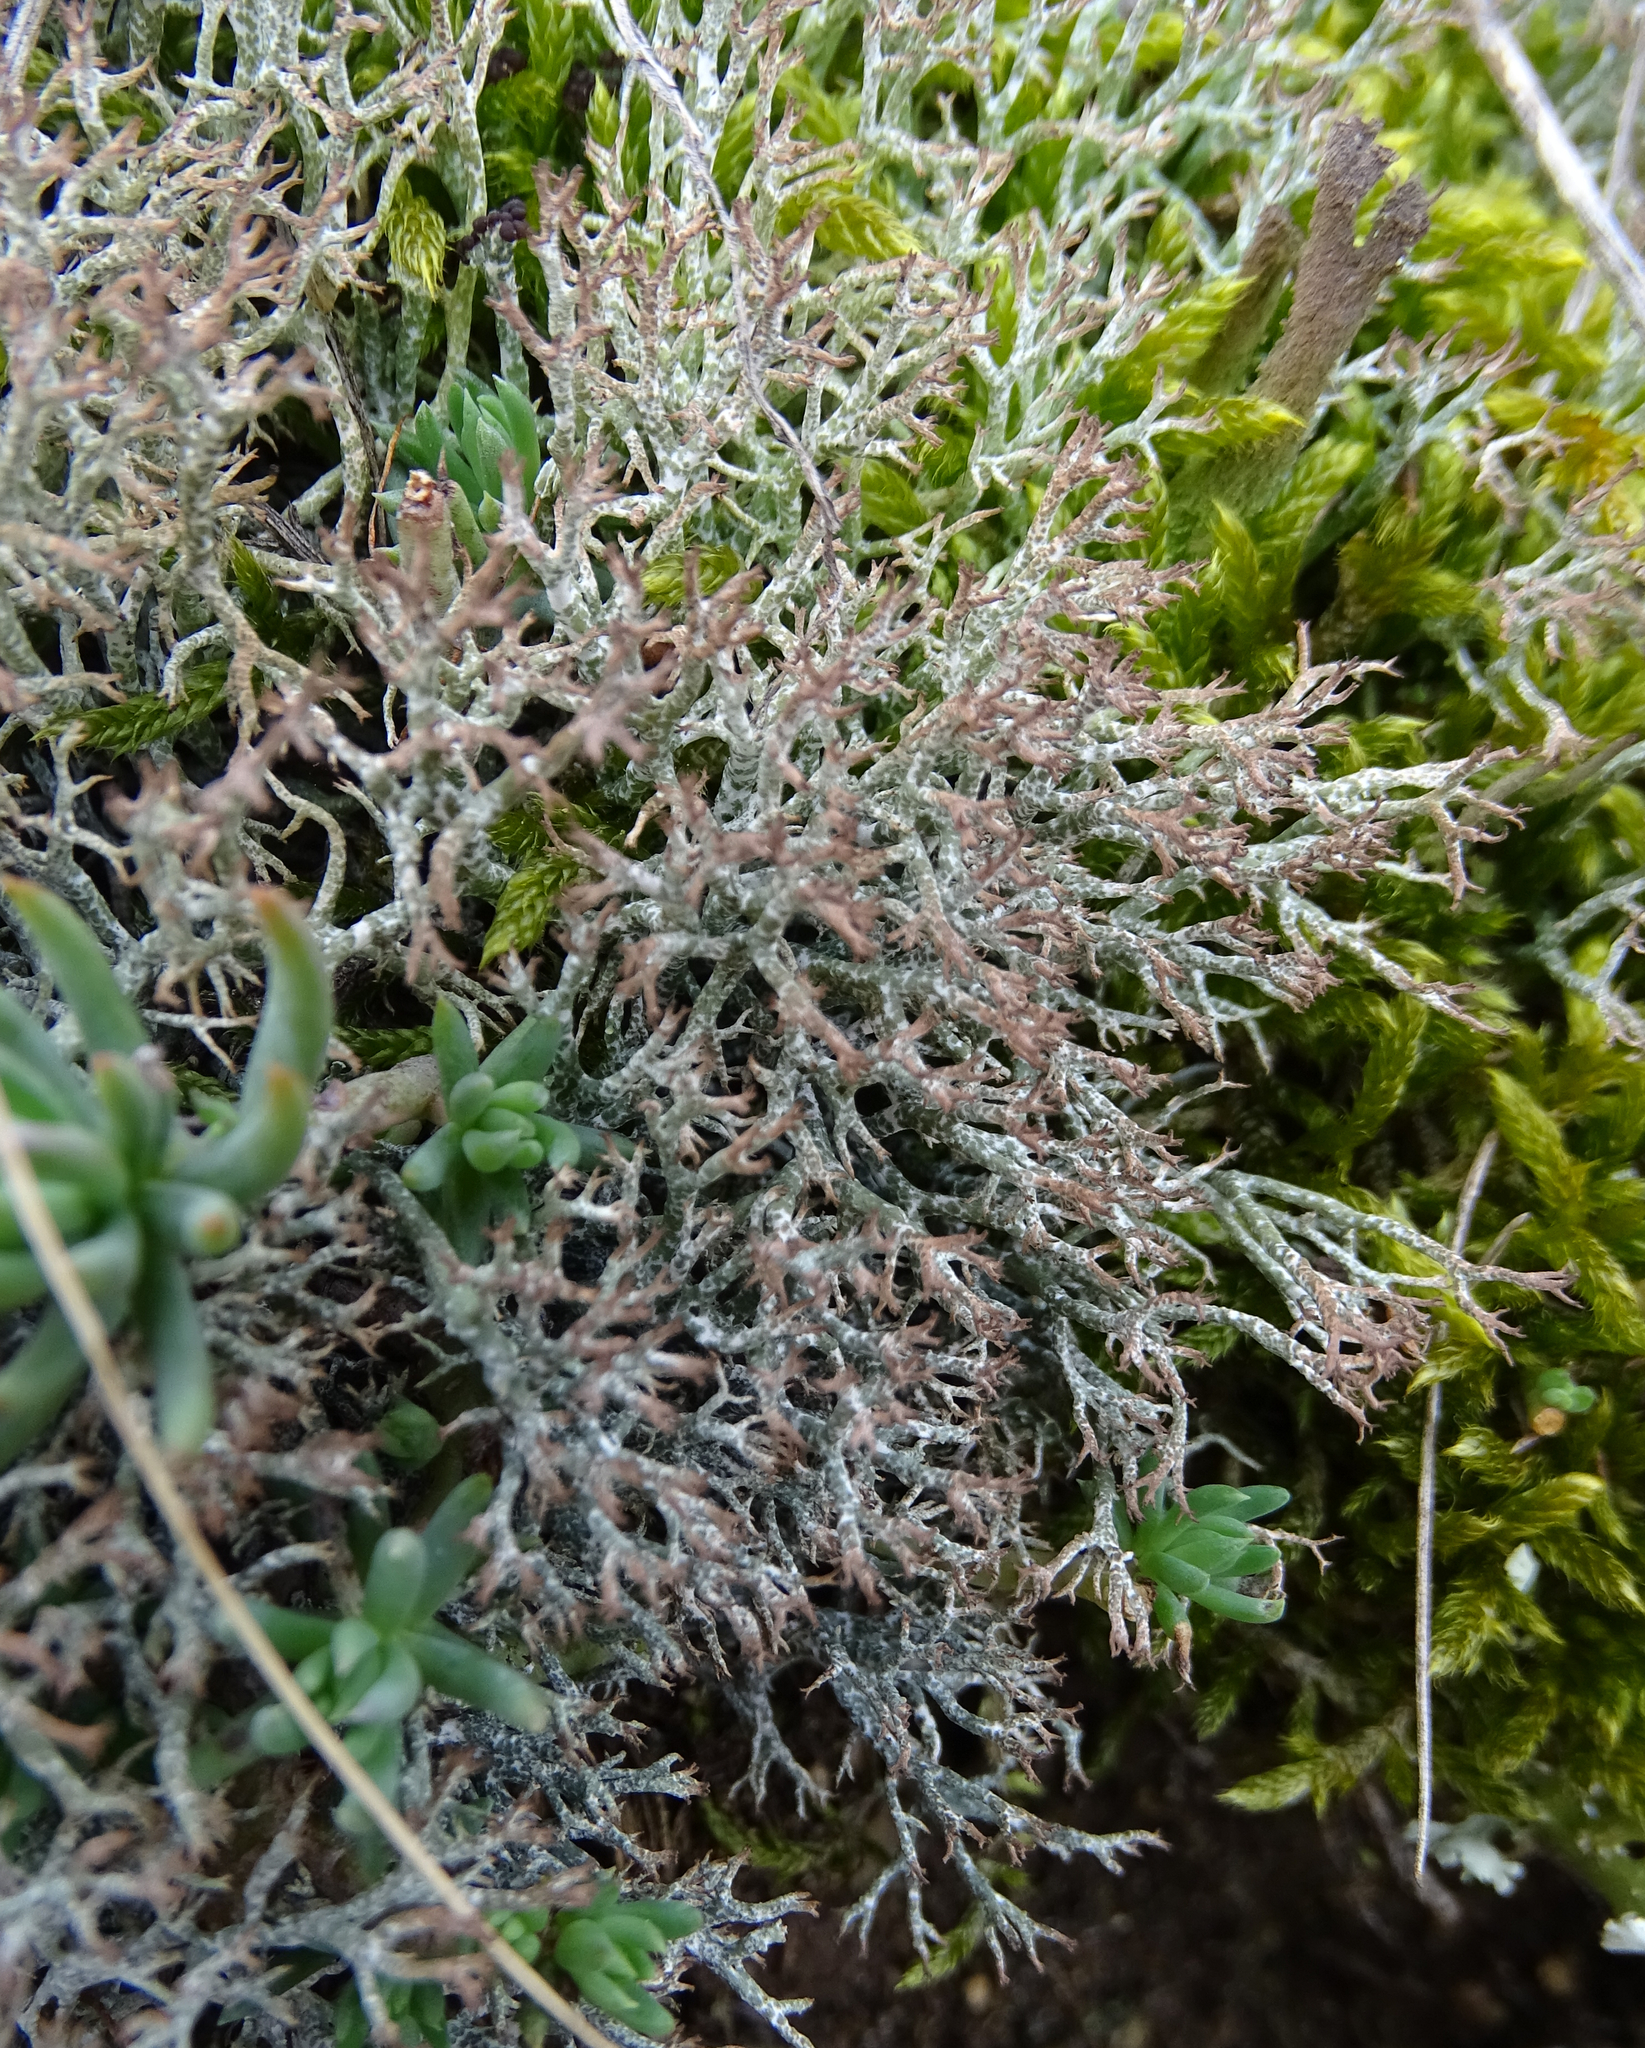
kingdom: Fungi
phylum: Ascomycota
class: Lecanoromycetes
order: Lecanorales
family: Cladoniaceae
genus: Cladonia
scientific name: Cladonia rangiformis
